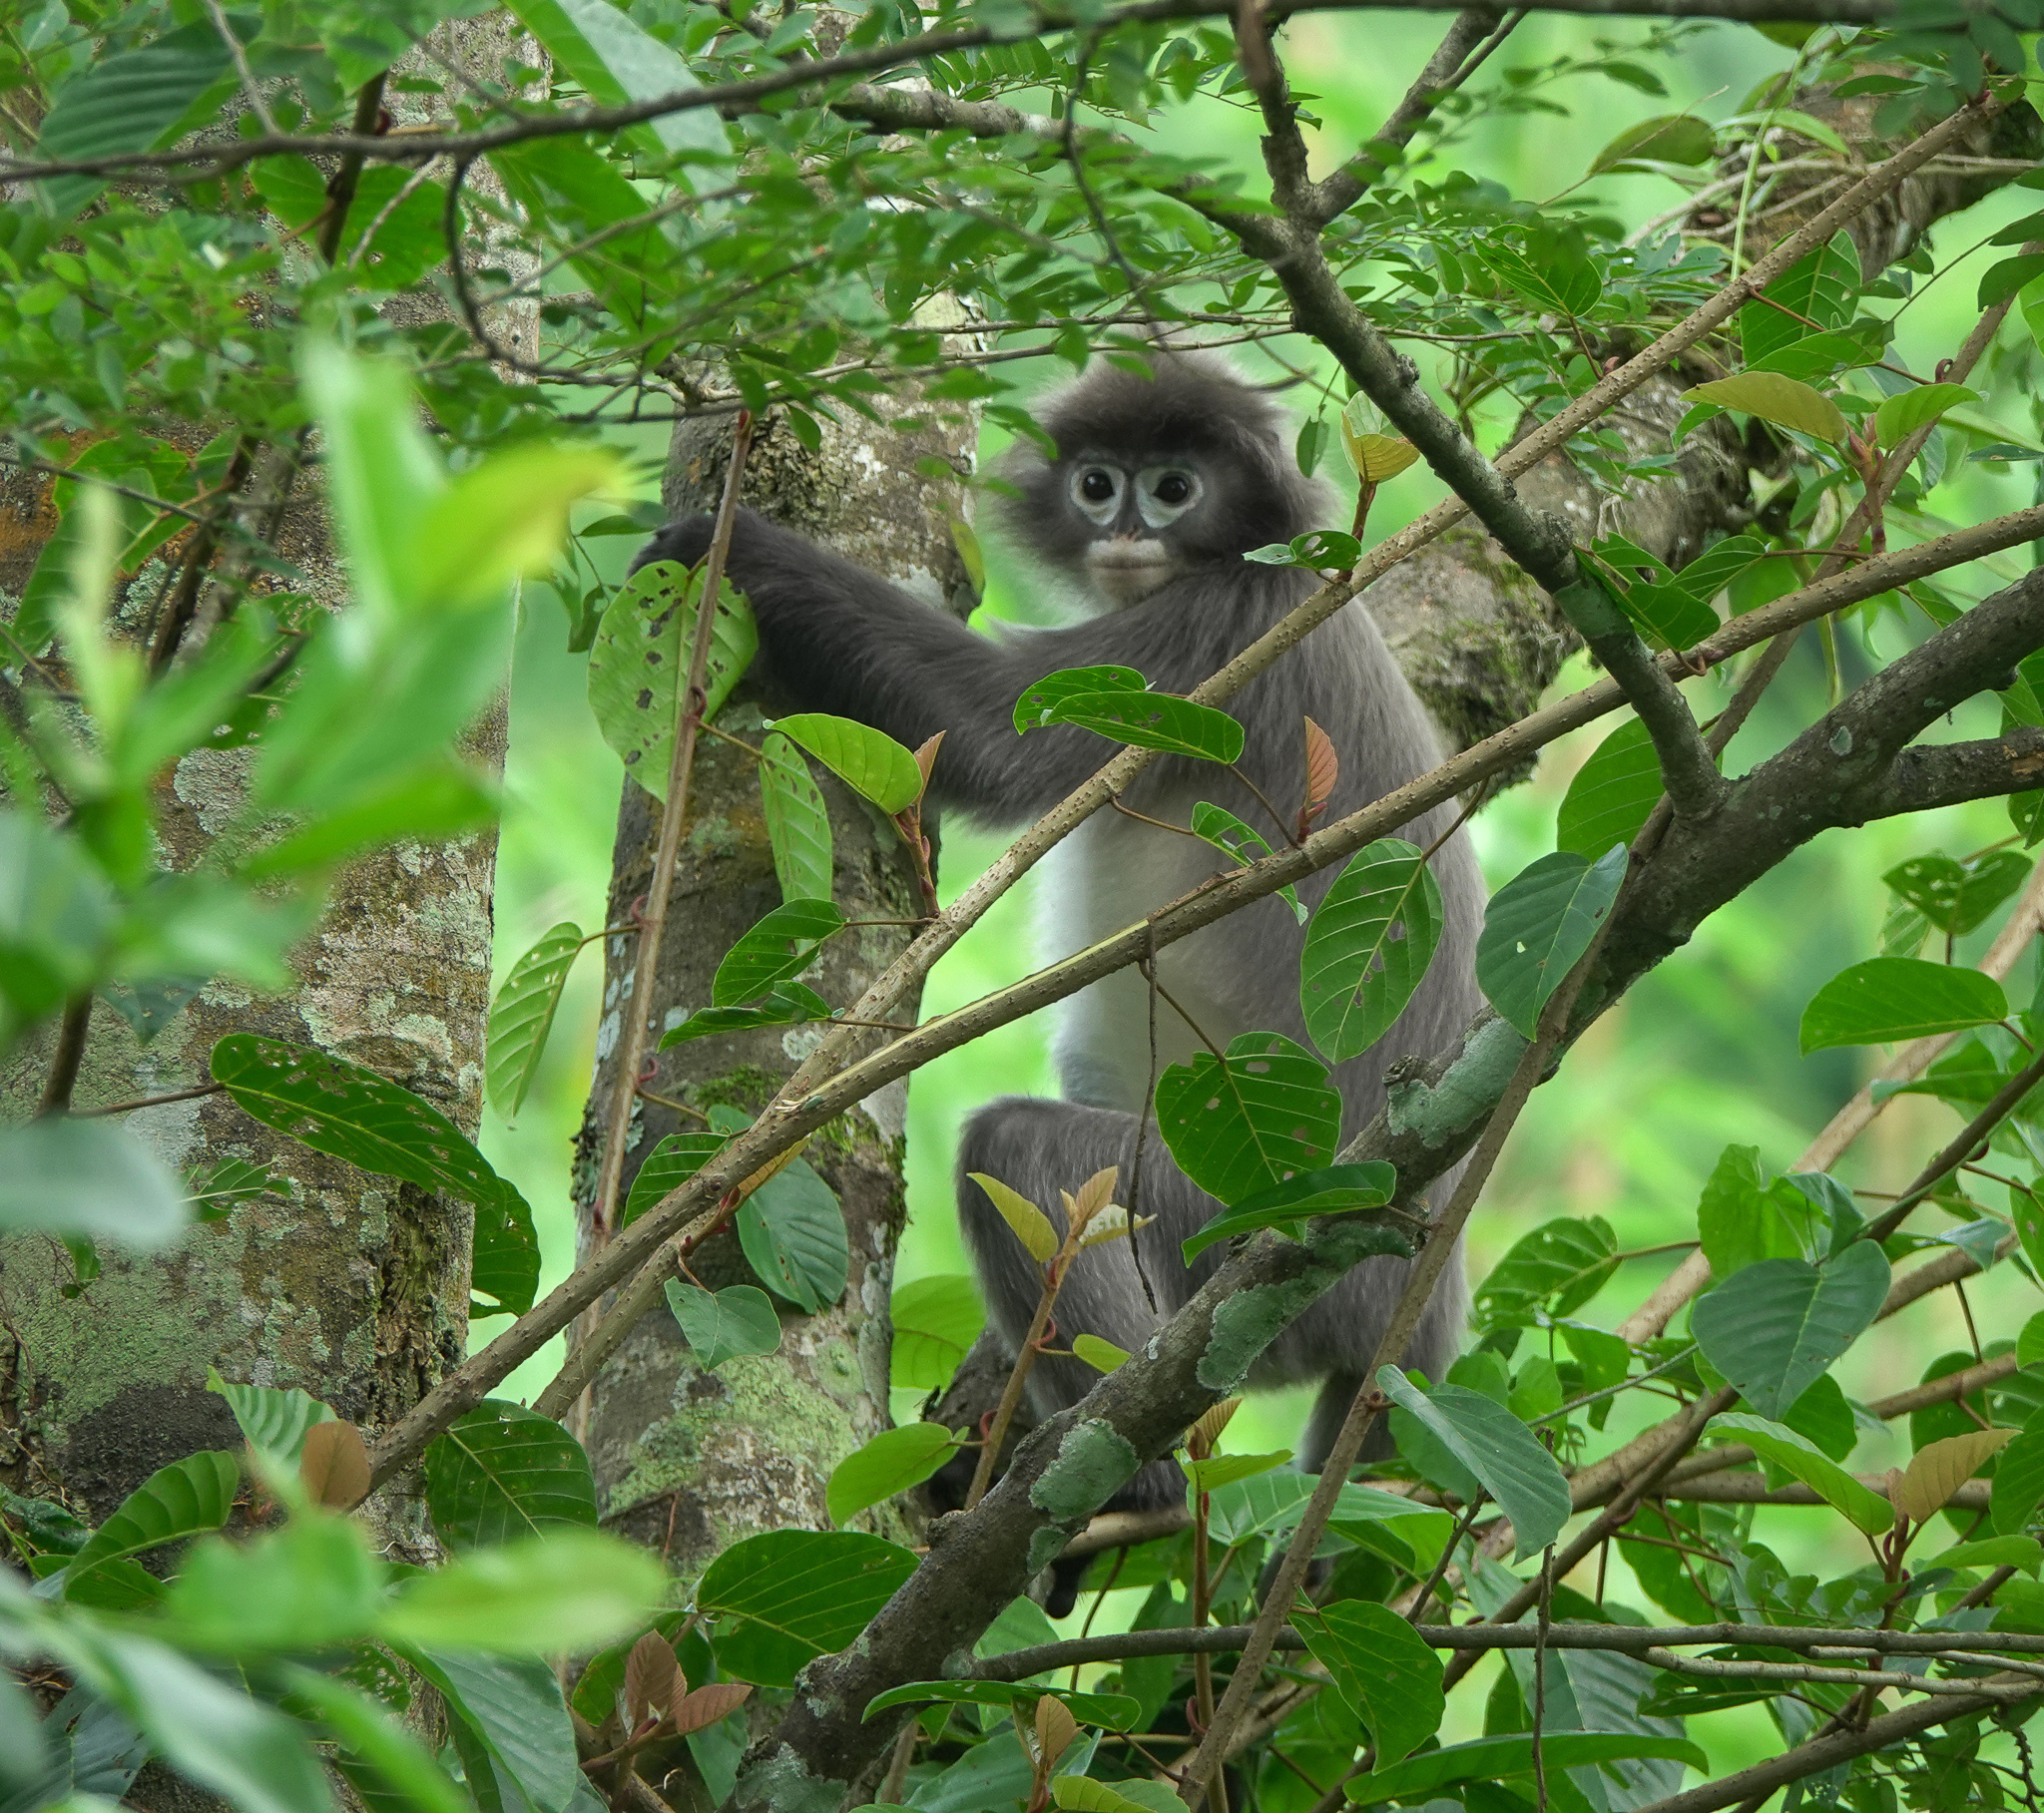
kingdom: Animalia
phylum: Chordata
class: Mammalia
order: Primates
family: Cercopithecidae
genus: Trachypithecus
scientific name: Trachypithecus phayrei
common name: Phayre's leaf monkey
